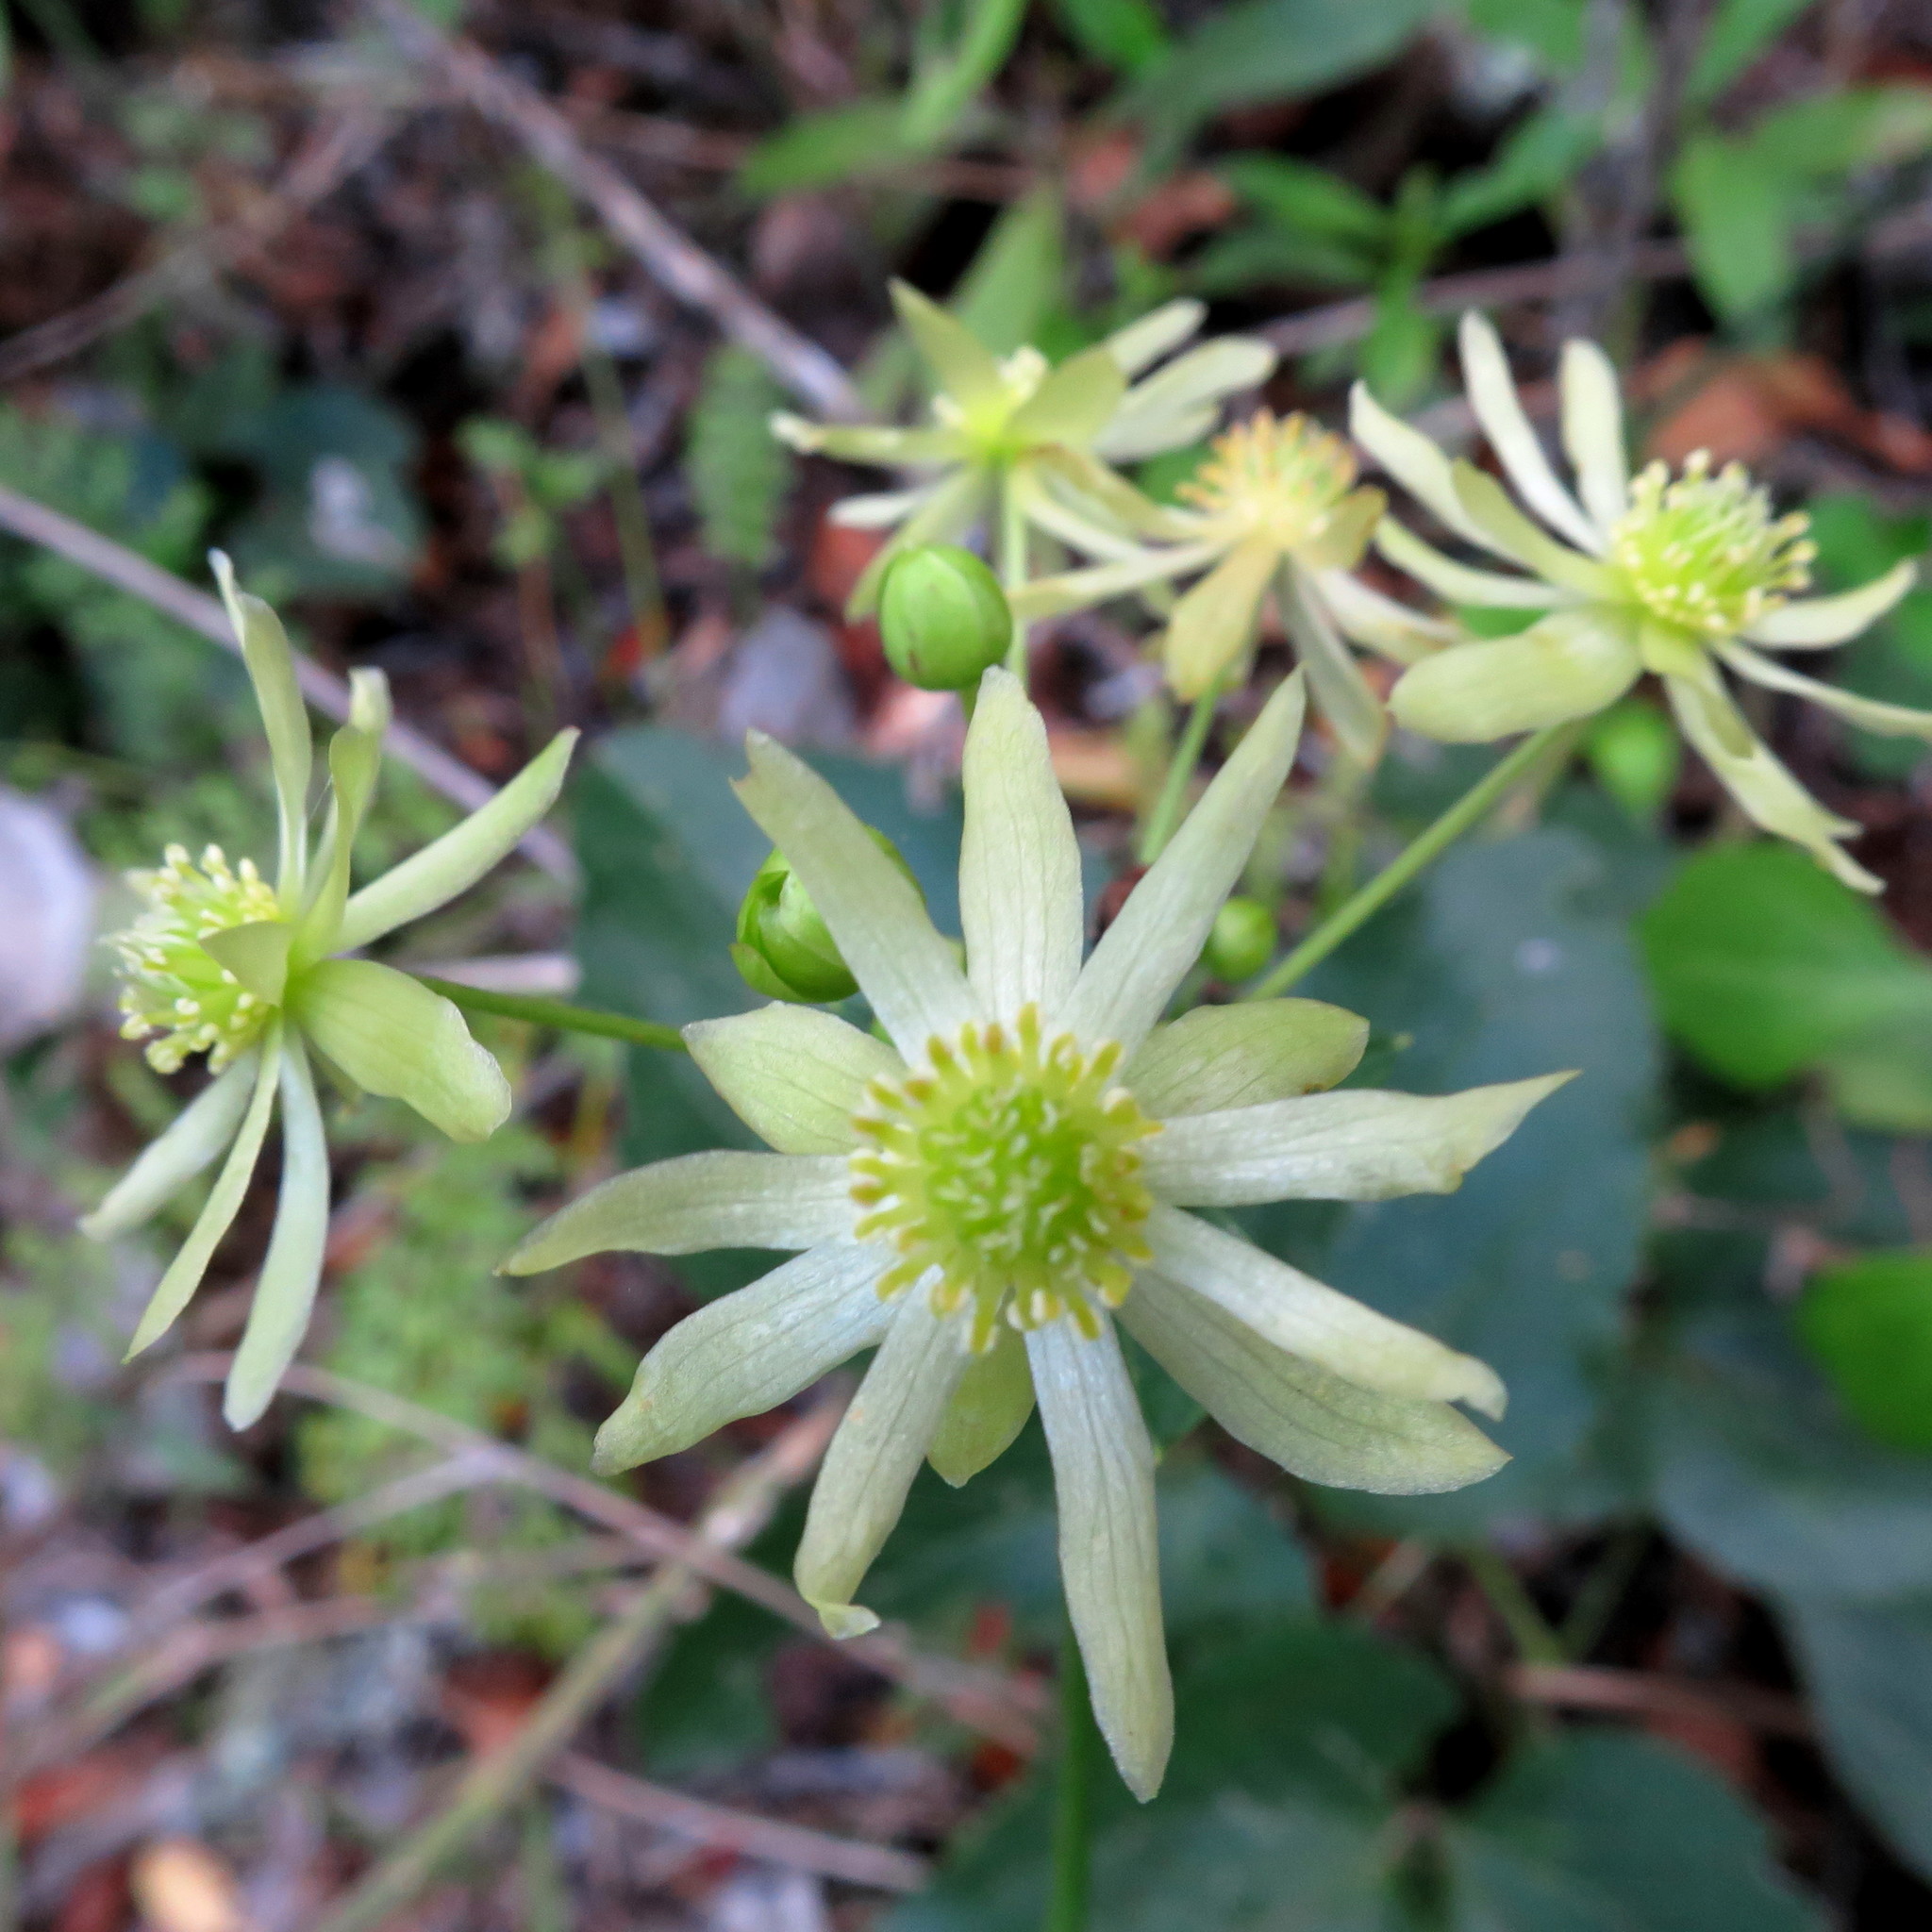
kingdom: Plantae
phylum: Tracheophyta
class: Magnoliopsida
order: Ranunculales
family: Ranunculaceae
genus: Knowltonia
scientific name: Knowltonia vesicatoria
